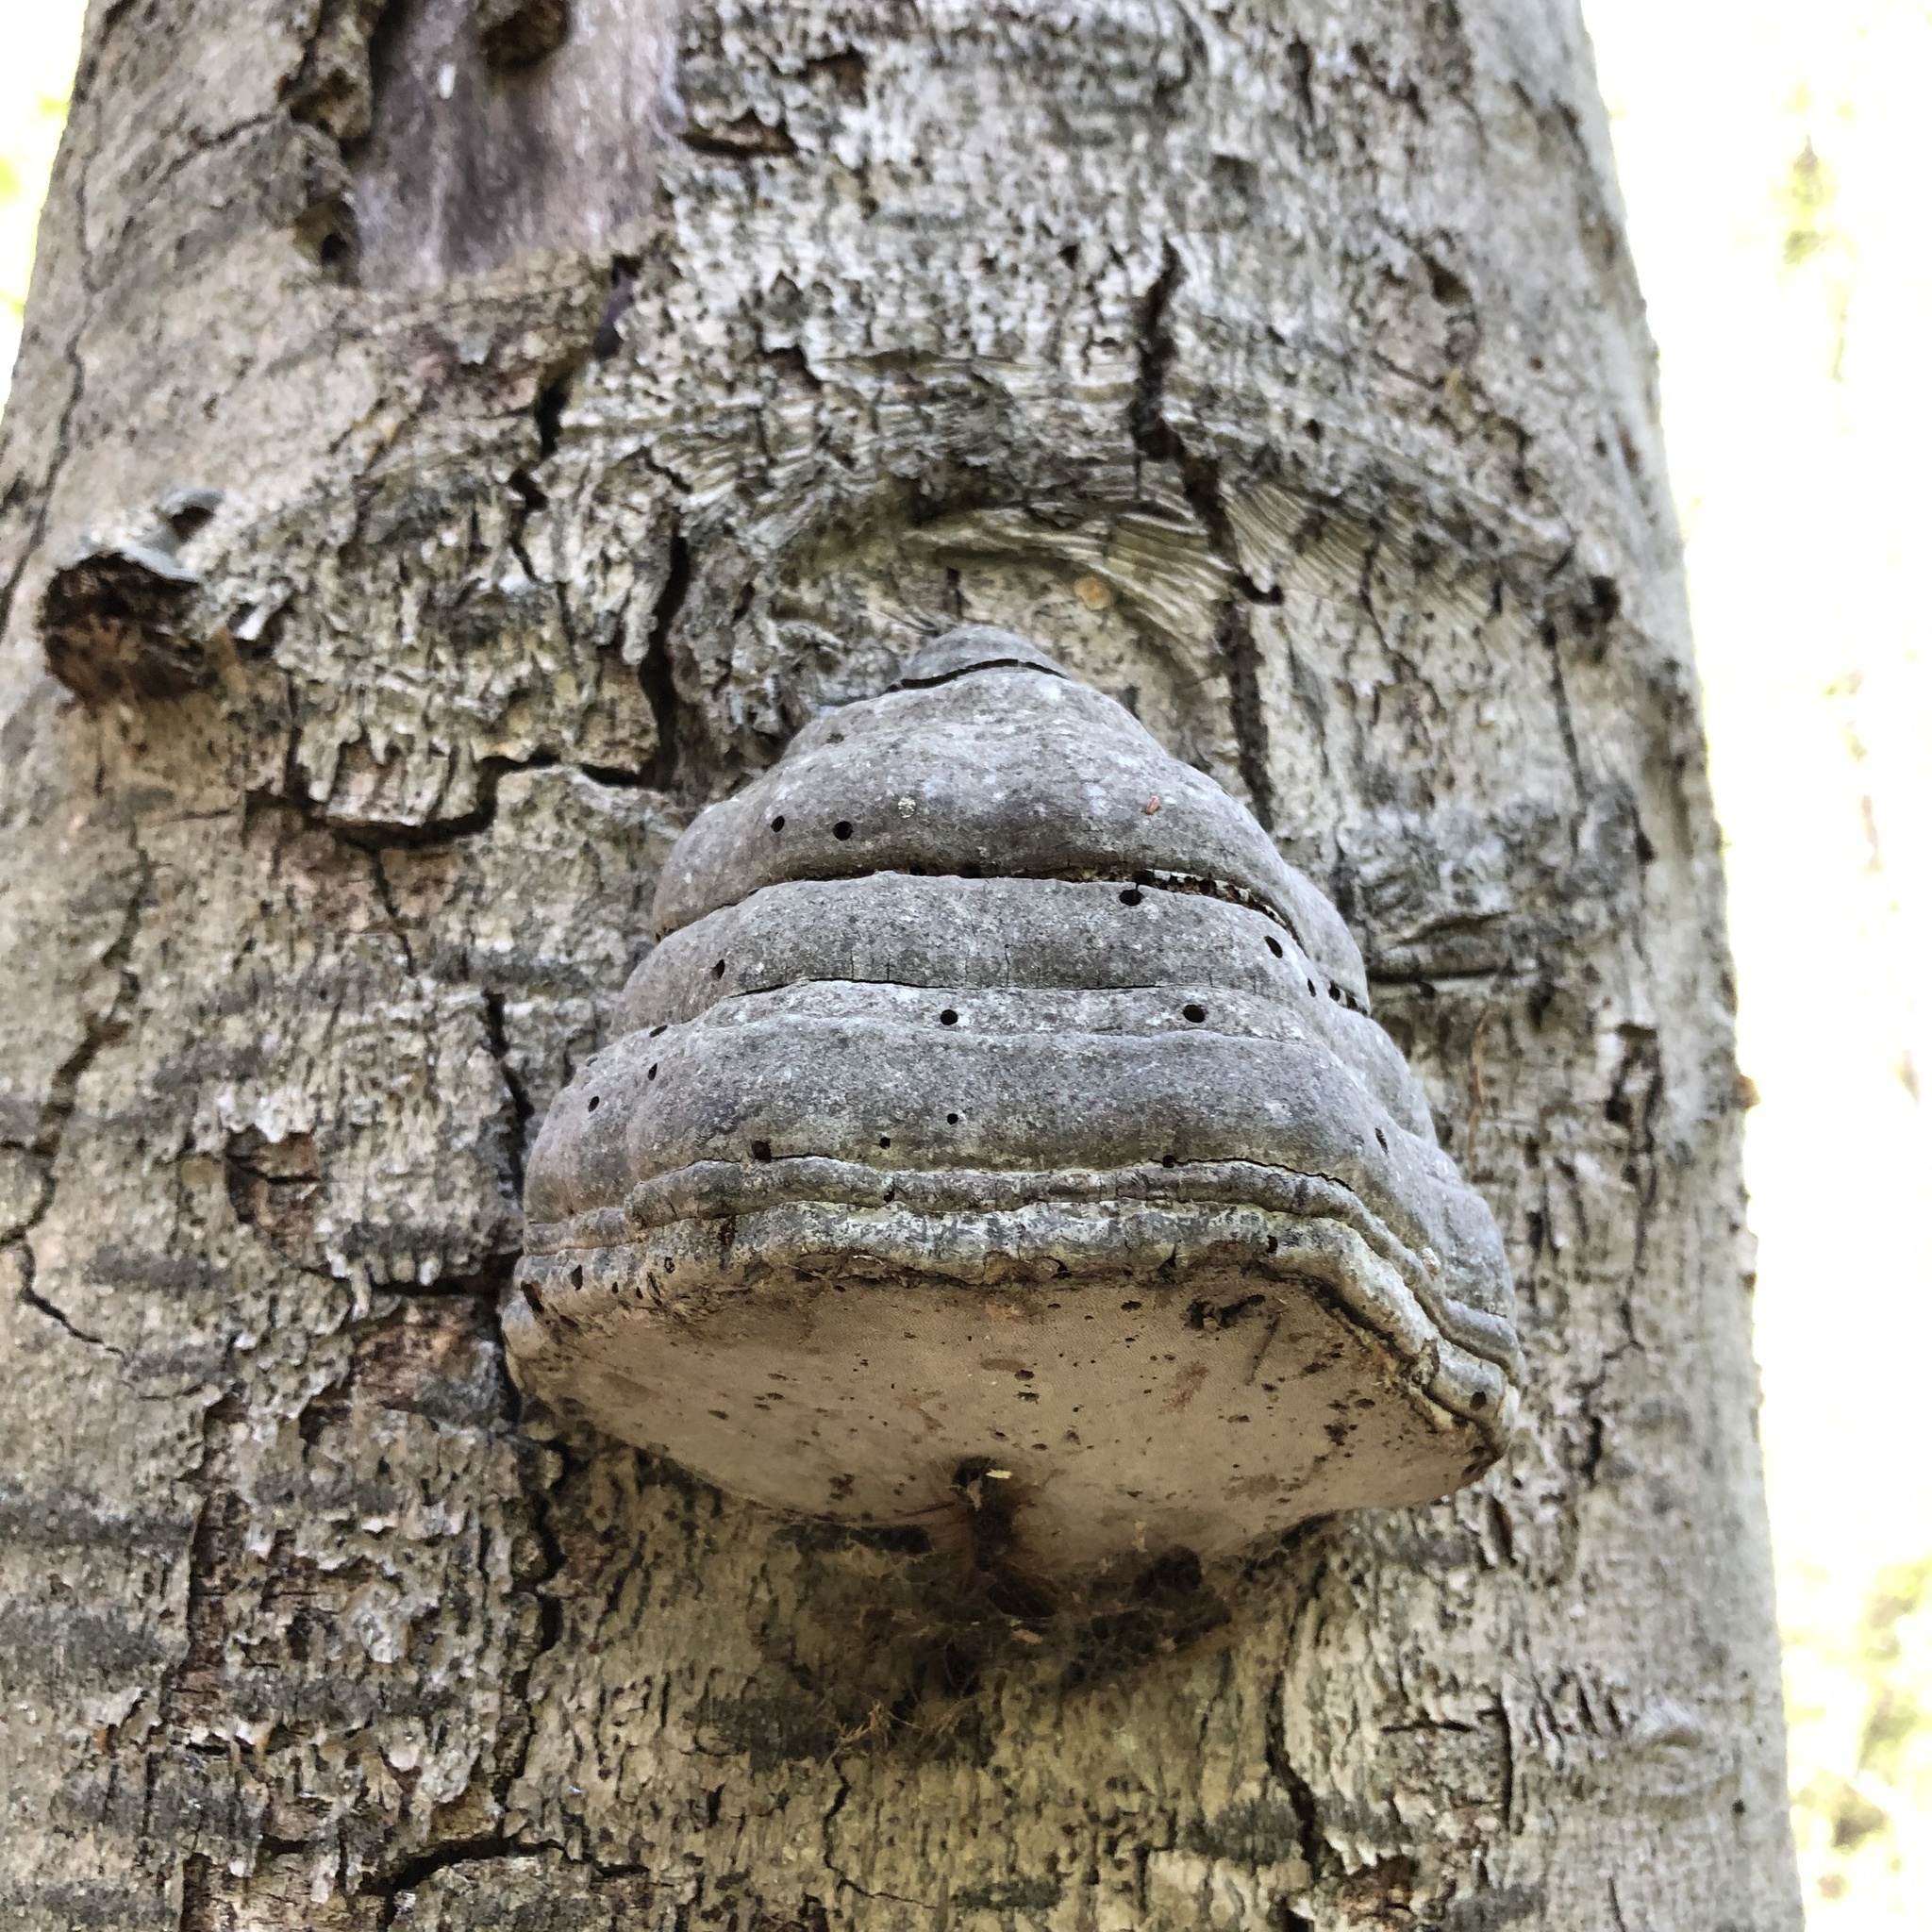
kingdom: Fungi
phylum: Basidiomycota
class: Agaricomycetes
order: Polyporales
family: Polyporaceae
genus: Fomes
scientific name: Fomes fomentarius
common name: Hoof fungus
